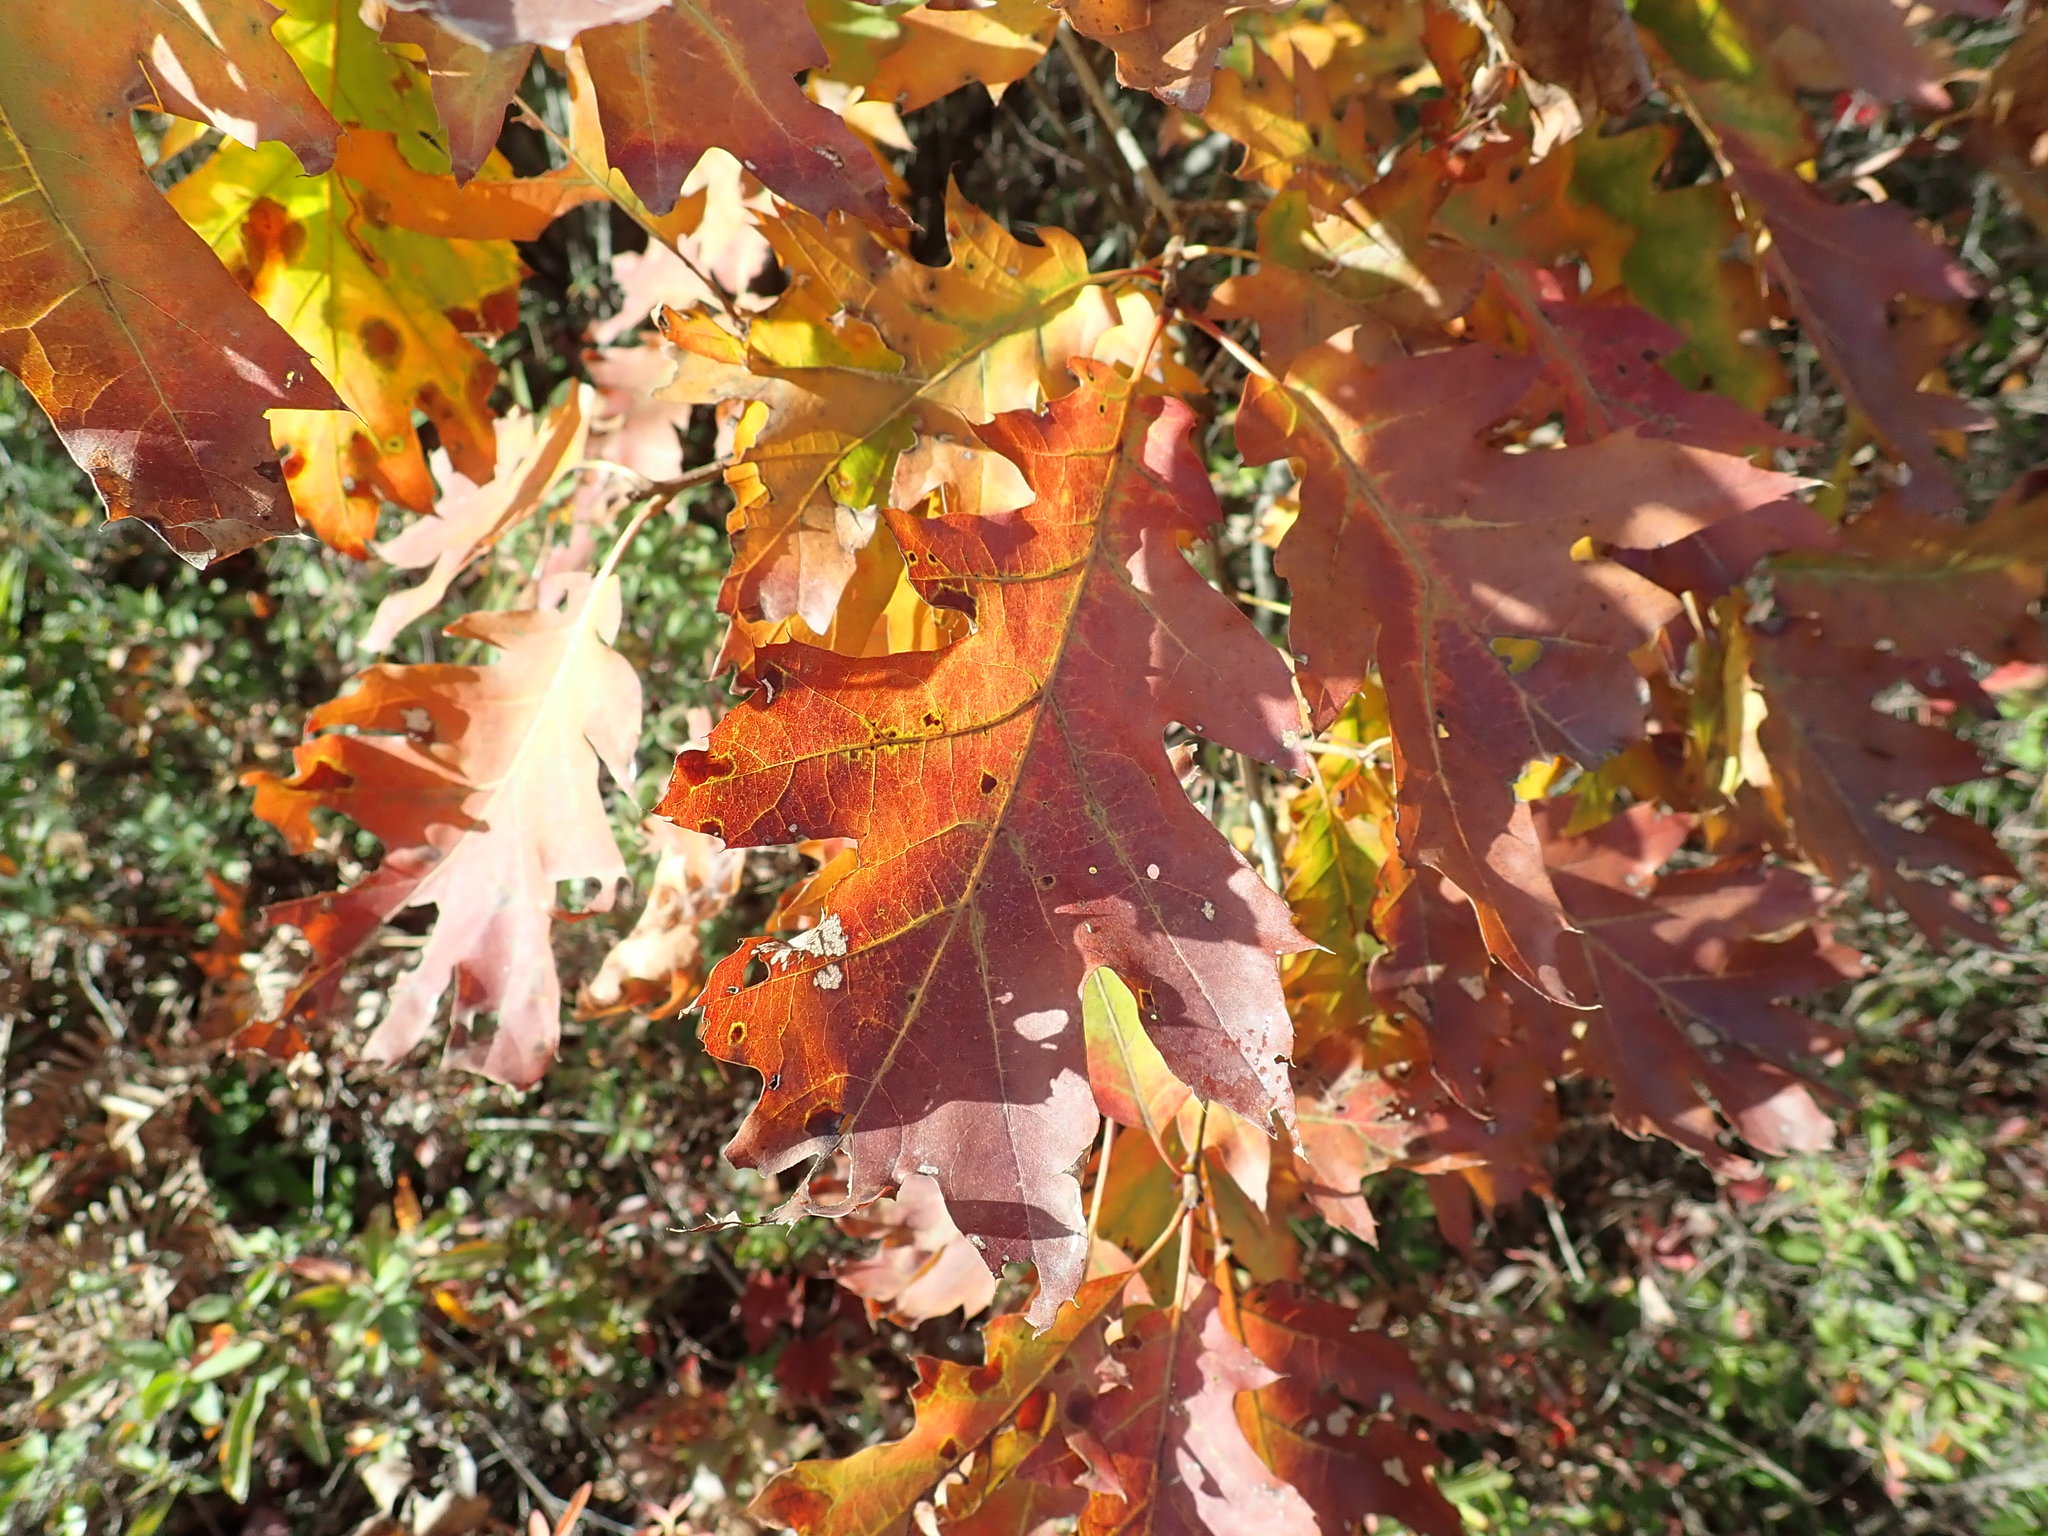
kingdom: Plantae
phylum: Tracheophyta
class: Magnoliopsida
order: Fagales
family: Fagaceae
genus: Quercus
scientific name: Quercus rubra
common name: Red oak
